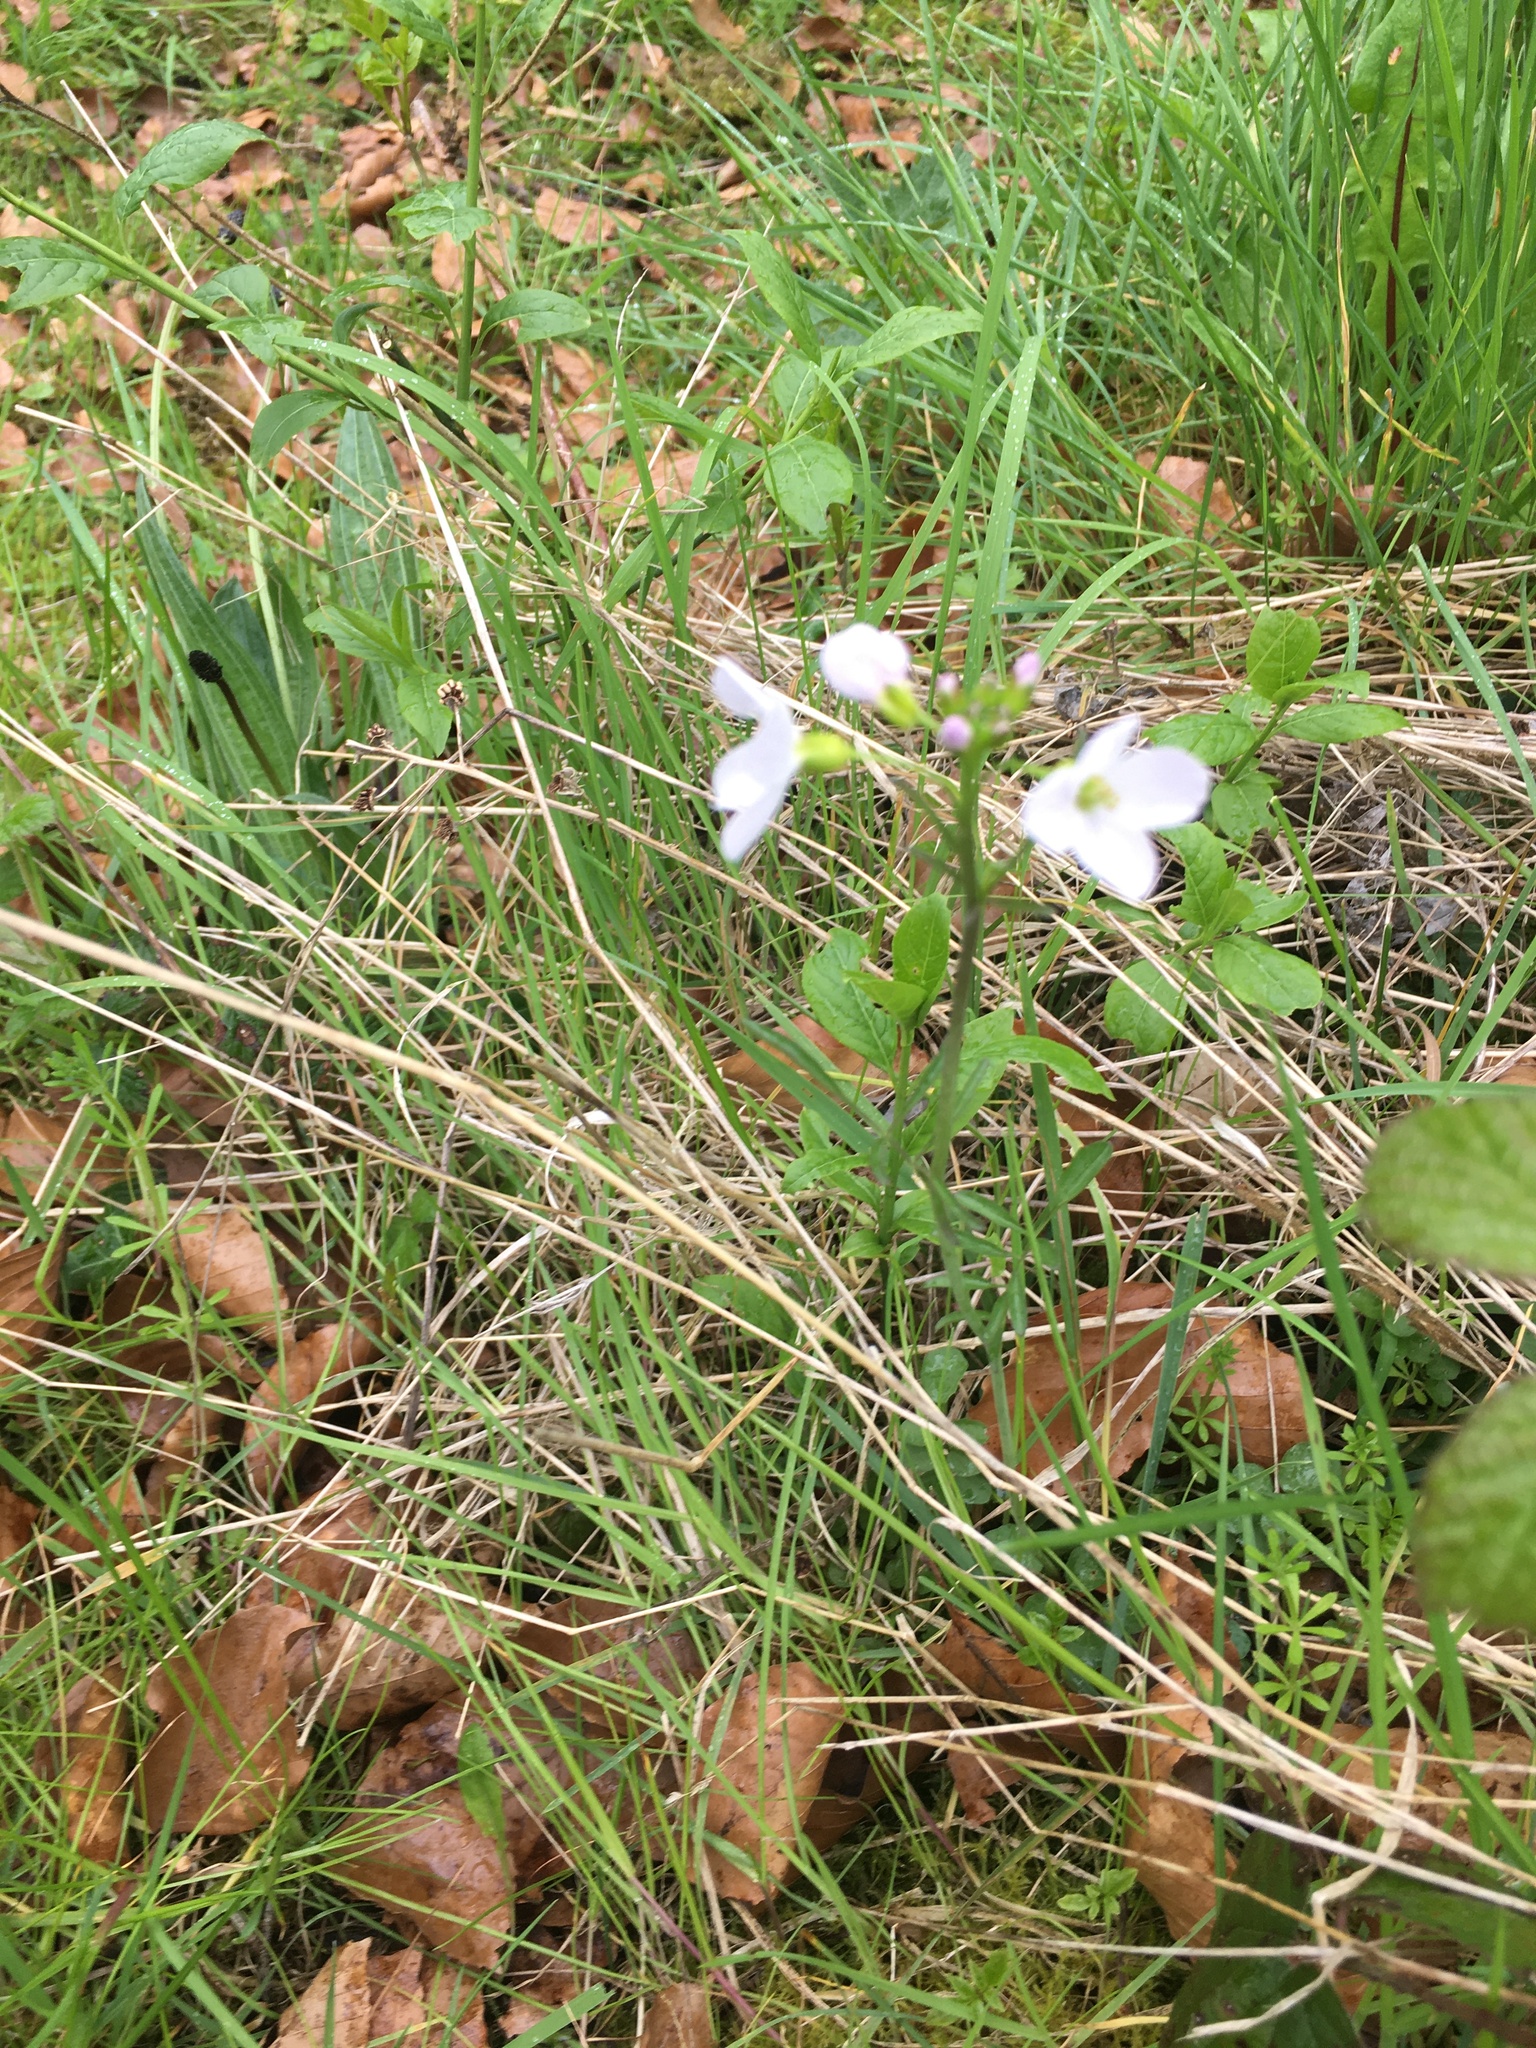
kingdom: Plantae
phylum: Tracheophyta
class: Magnoliopsida
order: Brassicales
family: Brassicaceae
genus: Cardamine
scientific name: Cardamine pratensis
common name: Cuckoo flower
